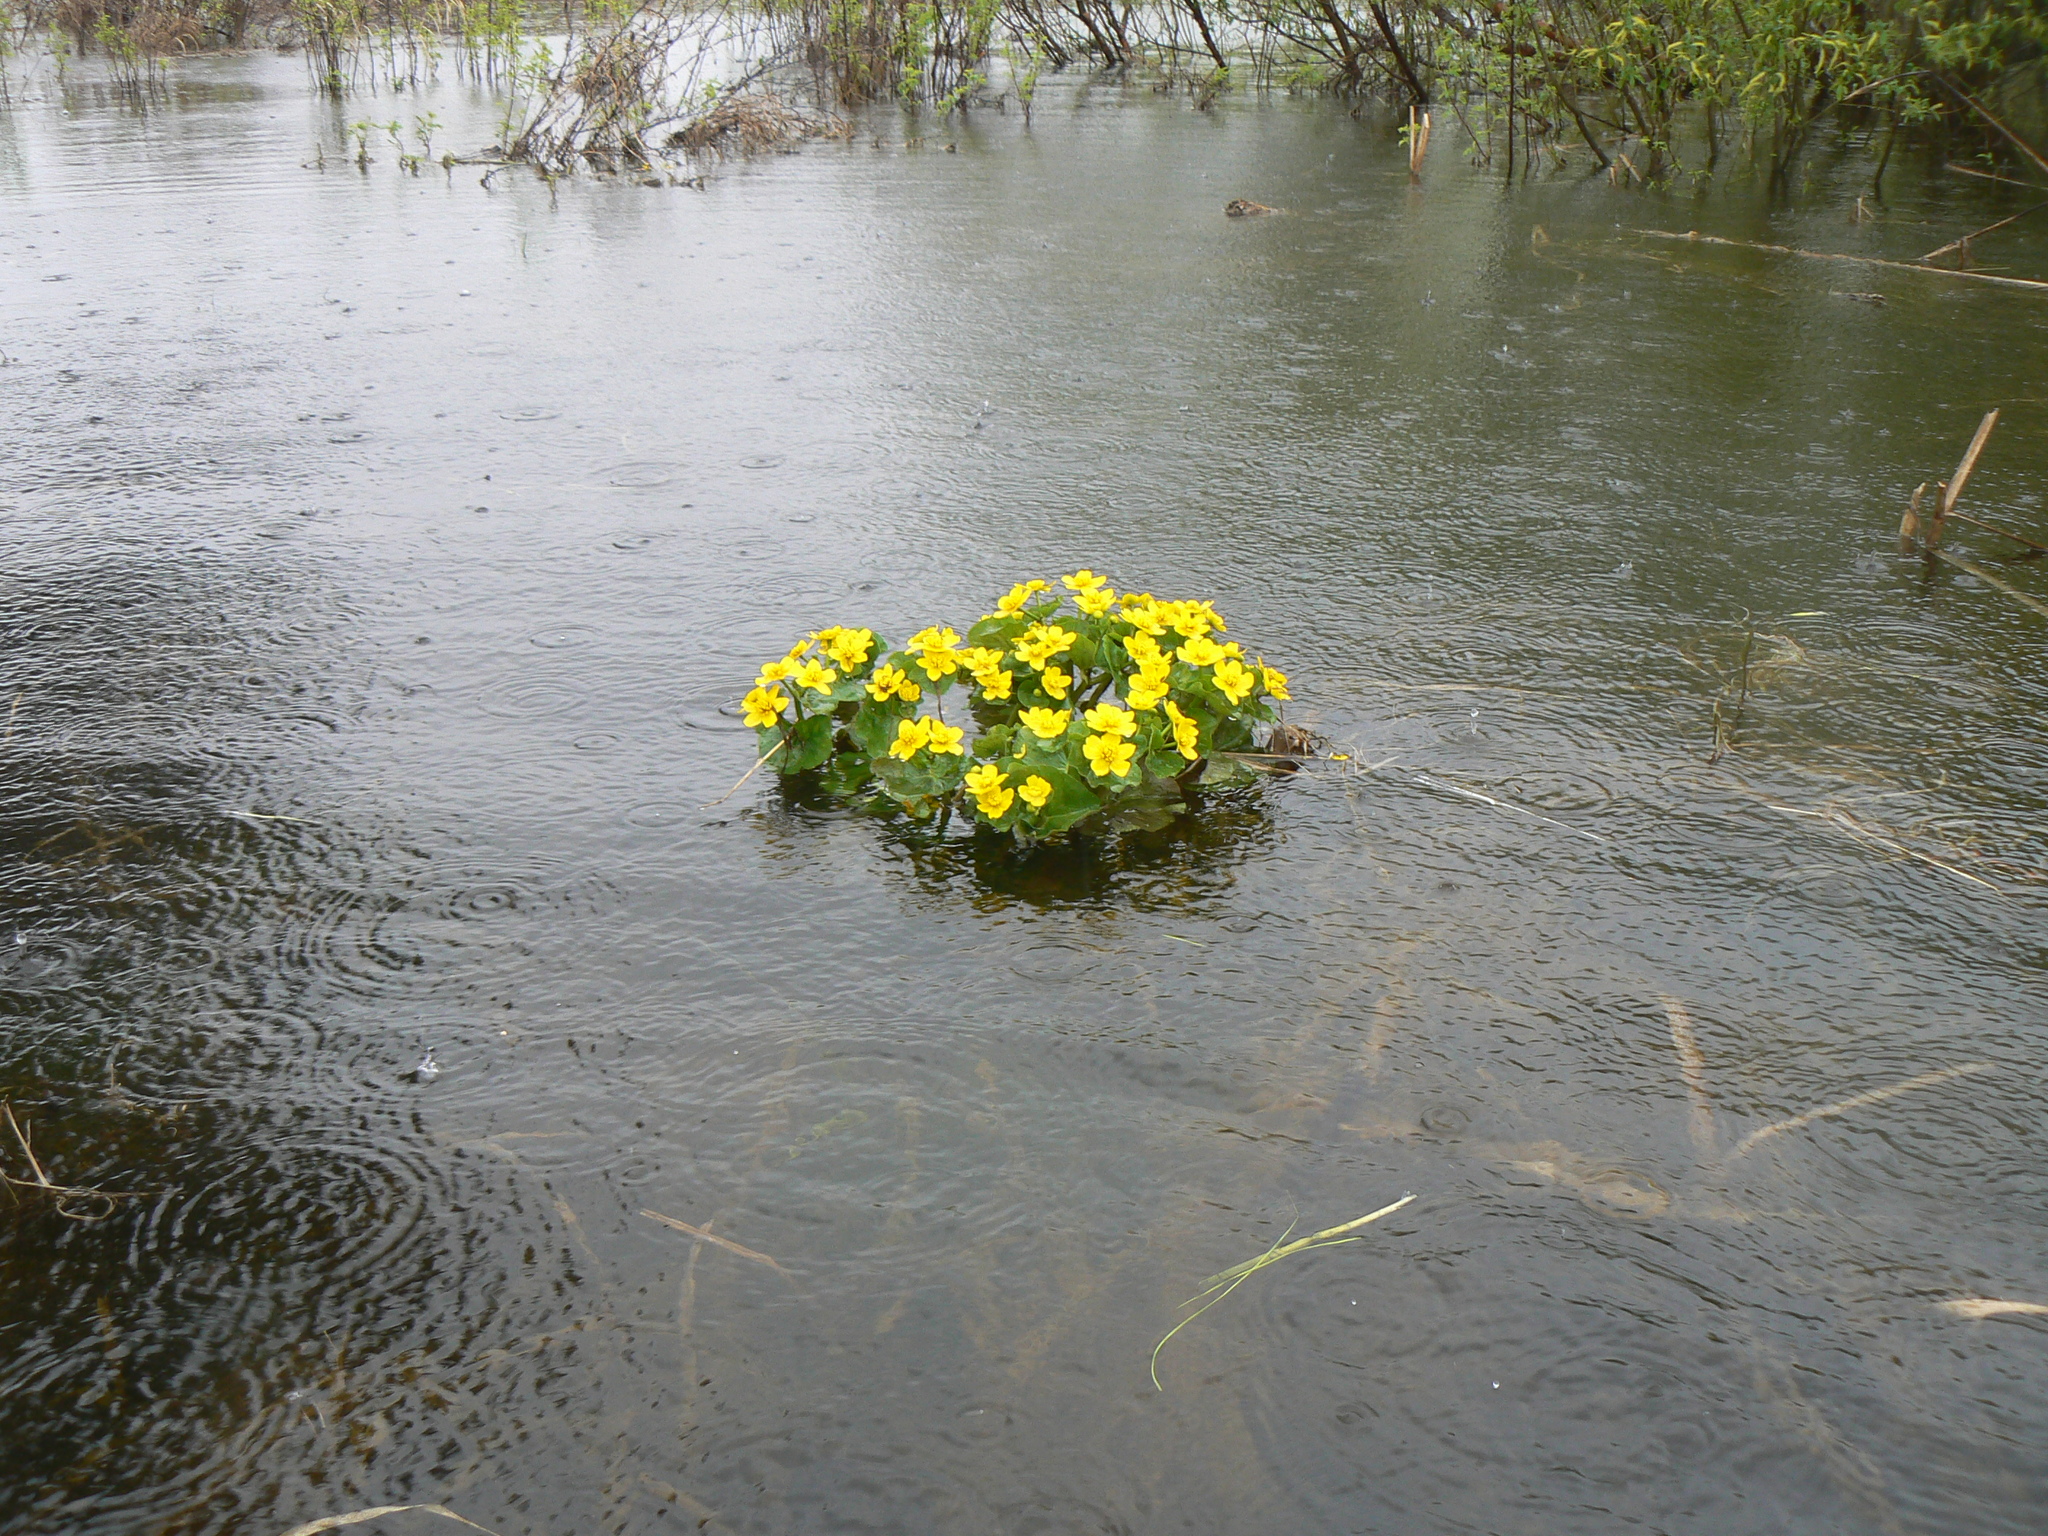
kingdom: Plantae
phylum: Tracheophyta
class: Magnoliopsida
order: Ranunculales
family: Ranunculaceae
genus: Caltha
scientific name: Caltha palustris
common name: Marsh marigold
